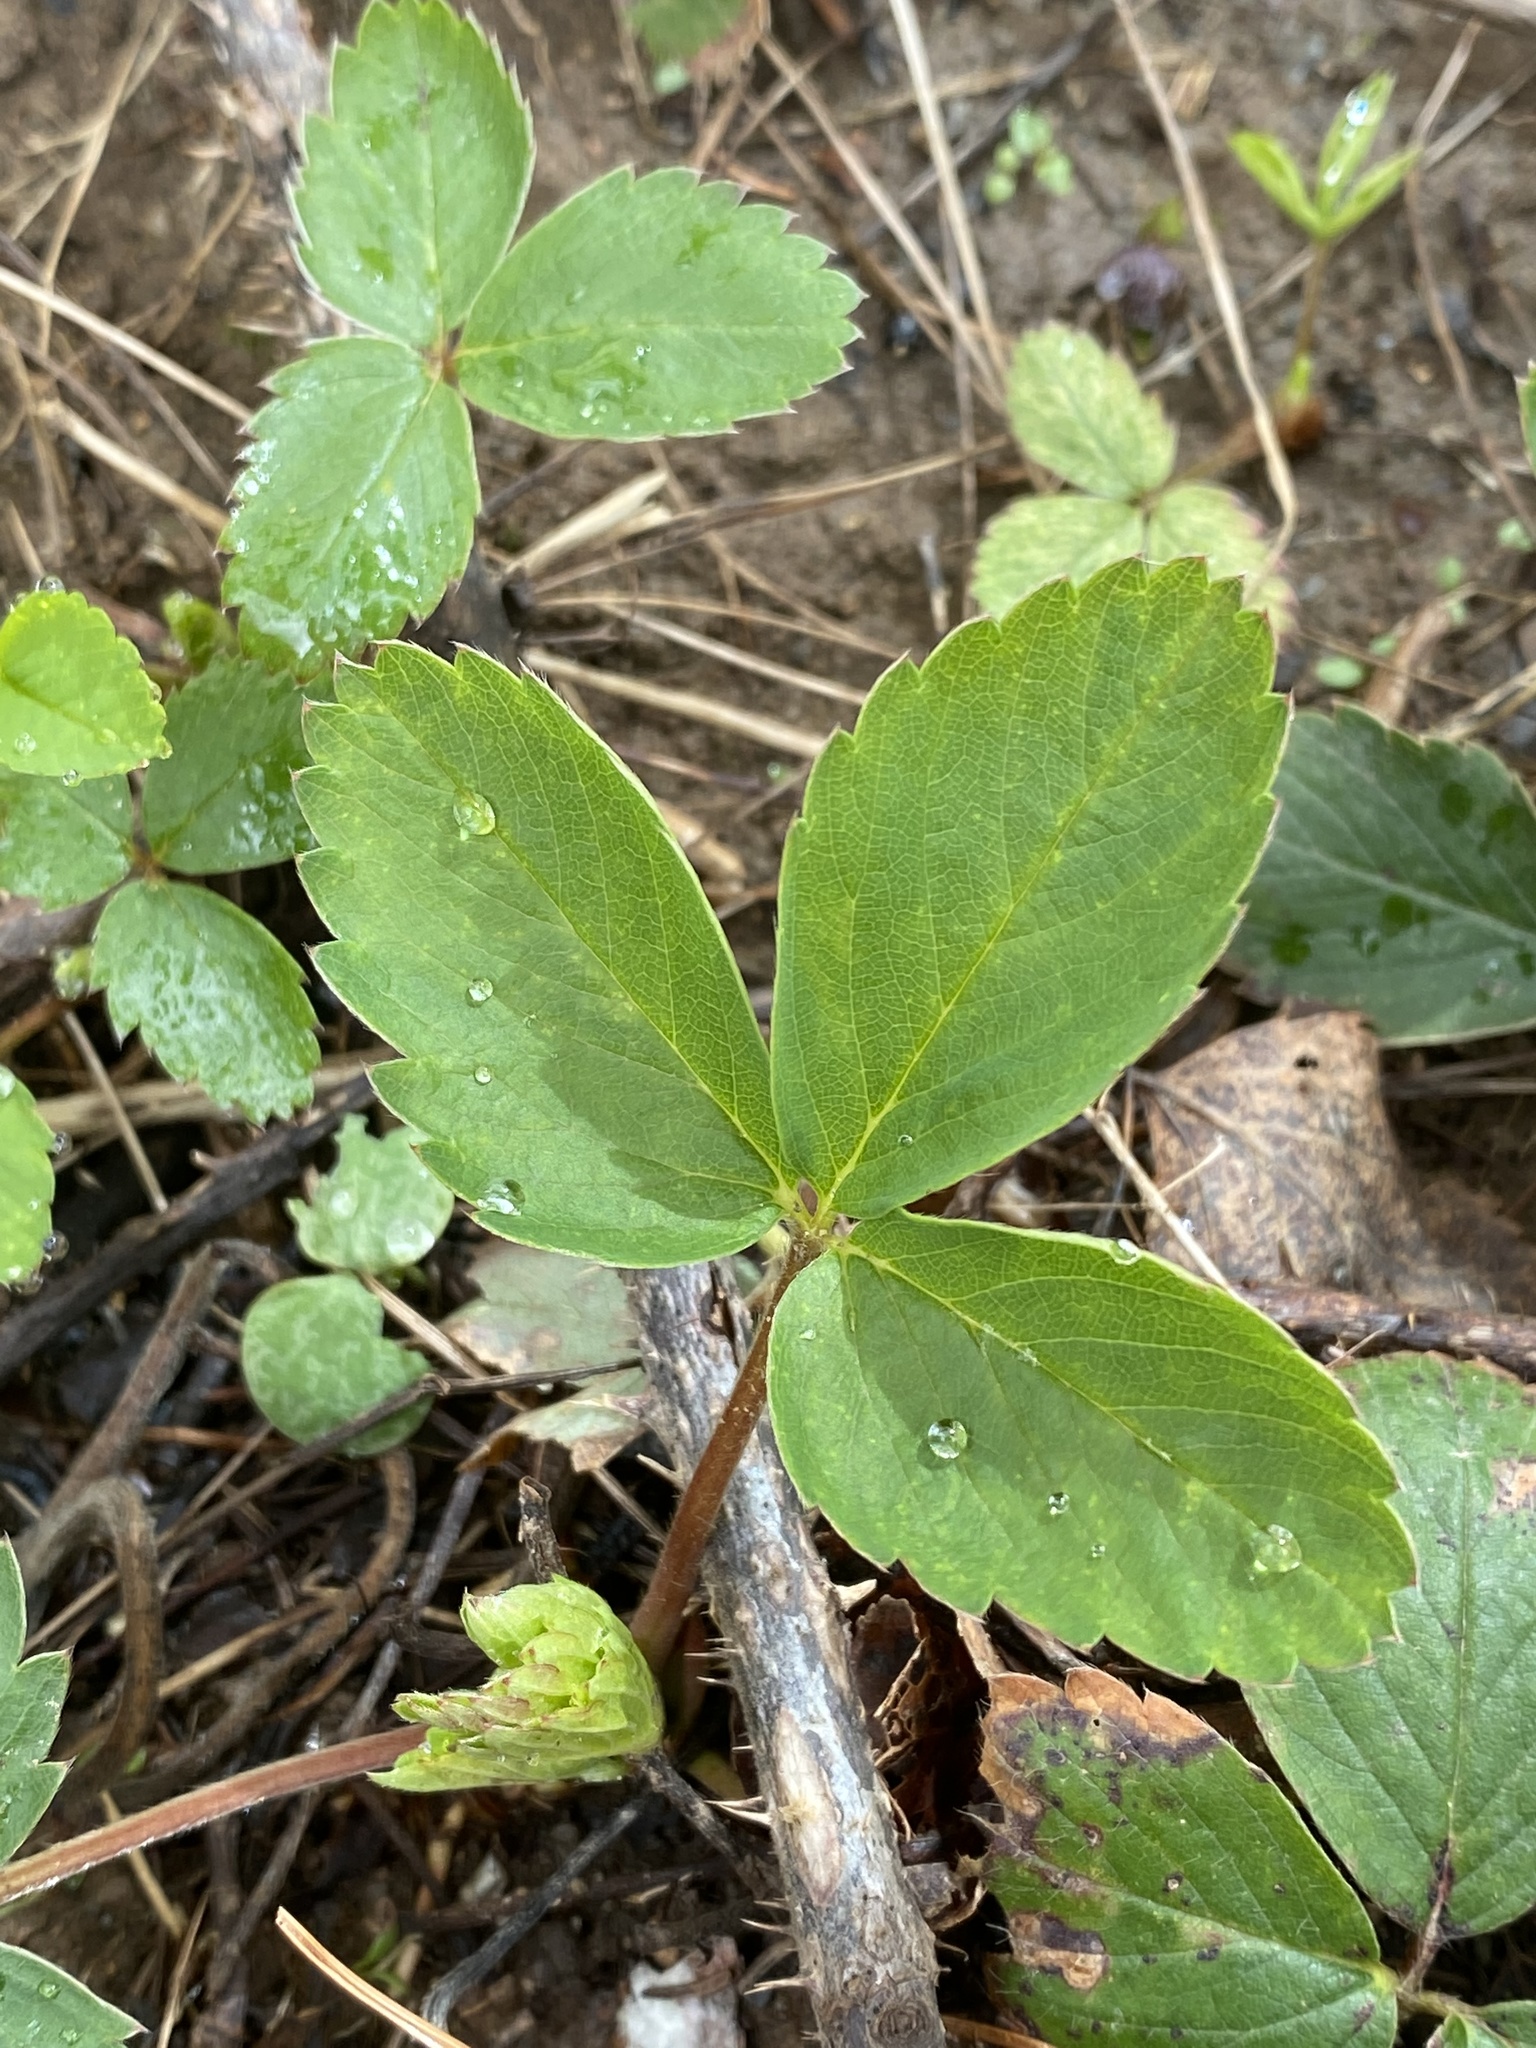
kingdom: Plantae
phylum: Tracheophyta
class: Magnoliopsida
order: Rosales
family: Rosaceae
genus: Fragaria
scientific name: Fragaria virginiana
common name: Thickleaved wild strawberry
